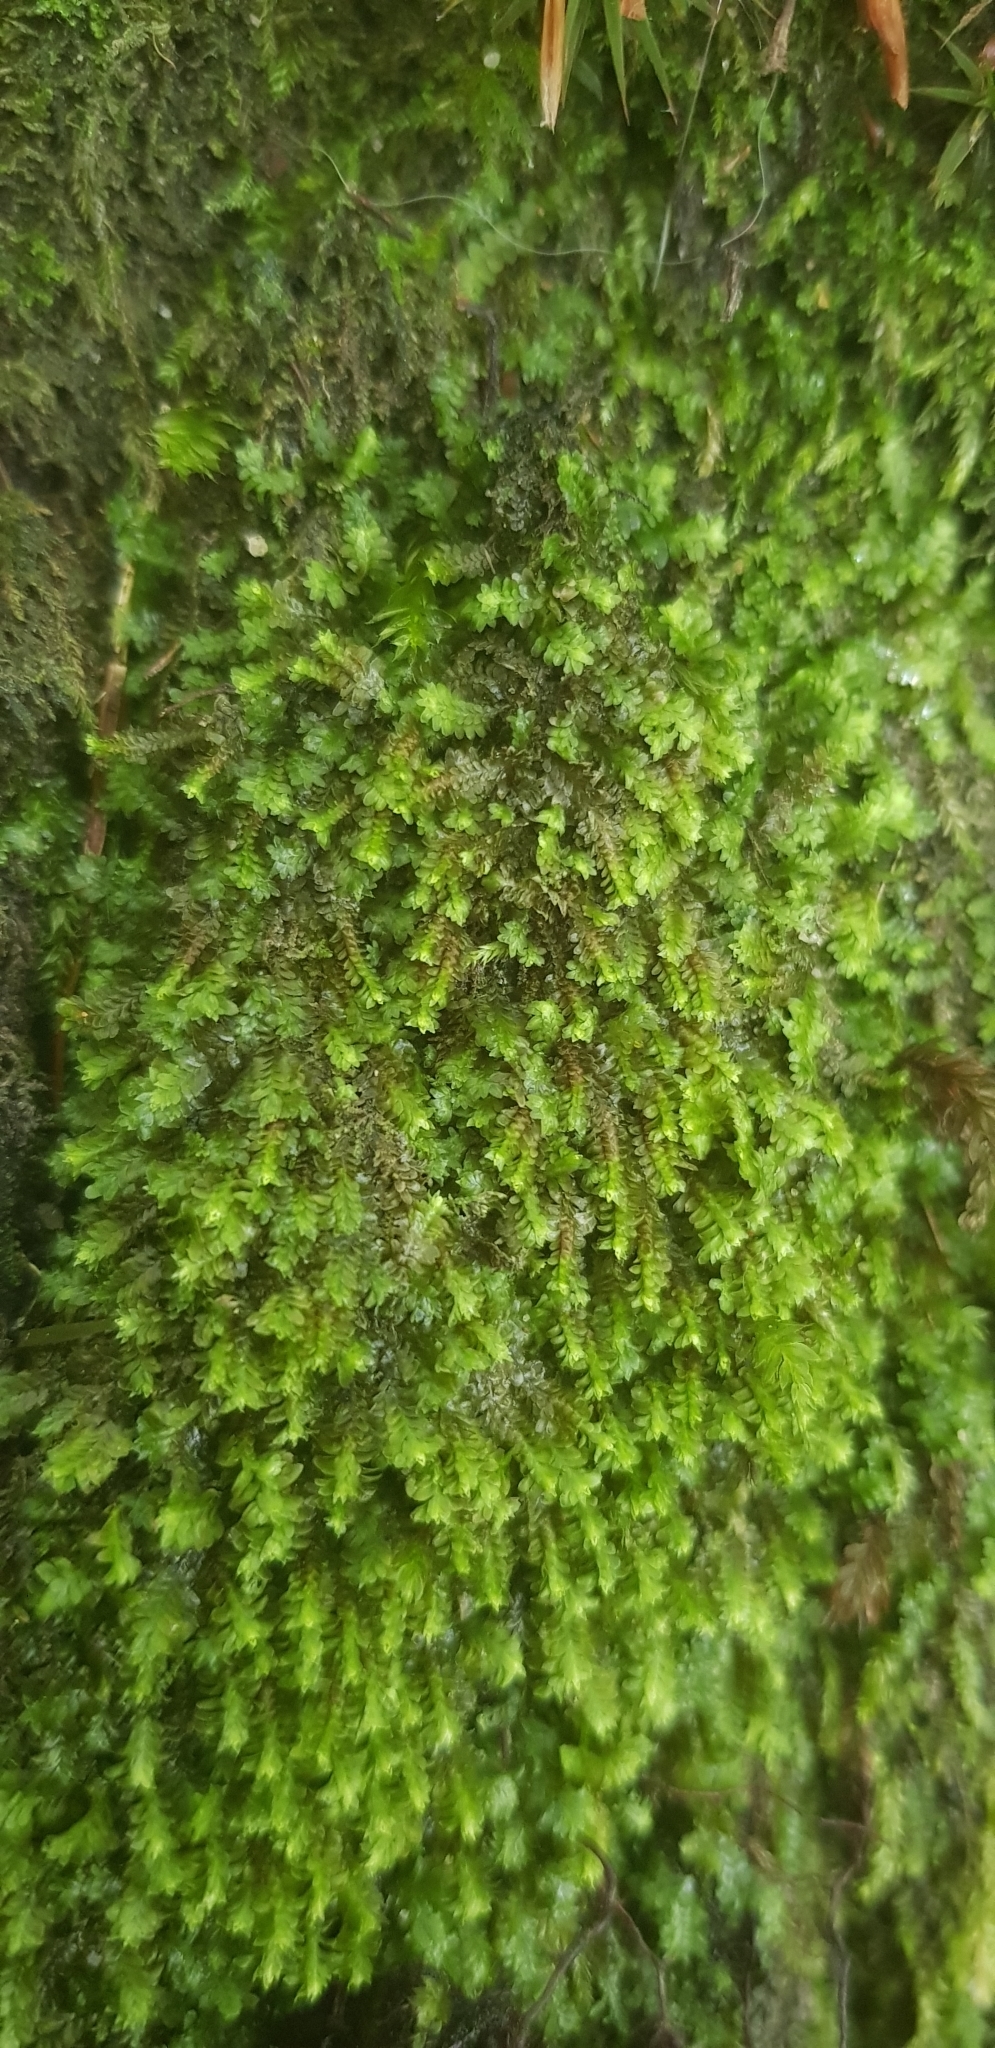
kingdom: Plantae
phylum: Marchantiophyta
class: Jungermanniopsida
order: Jungermanniales
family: Scapaniaceae
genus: Diplophyllum
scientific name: Diplophyllum albicans
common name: White earwort
